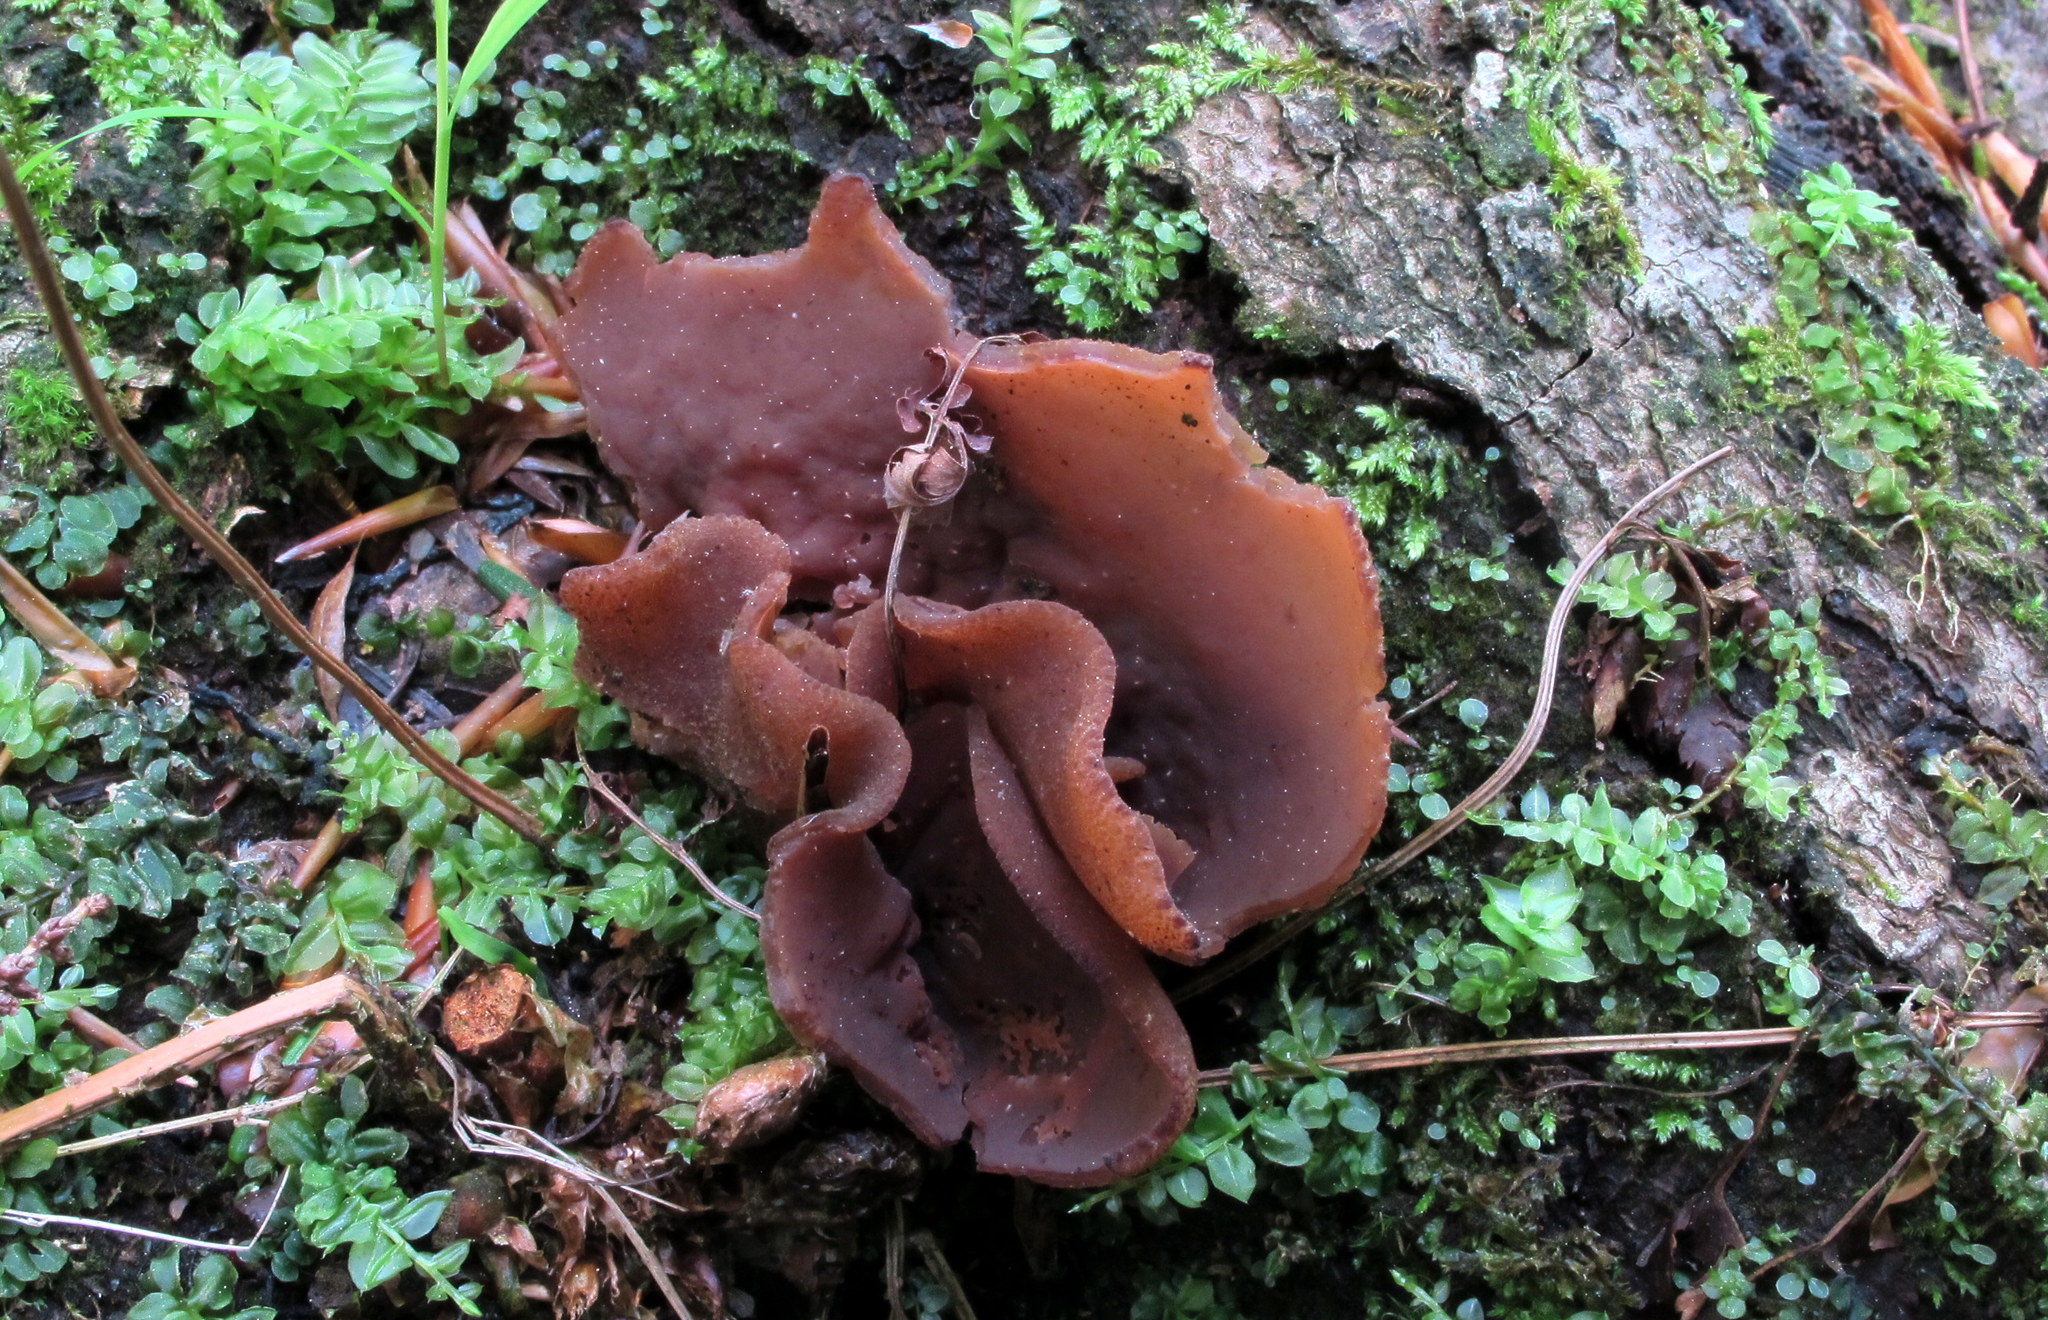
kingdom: Fungi
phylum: Ascomycota
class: Pezizomycetes
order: Pezizales
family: Pezizaceae
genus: Phylloscypha
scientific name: Phylloscypha phyllogena
